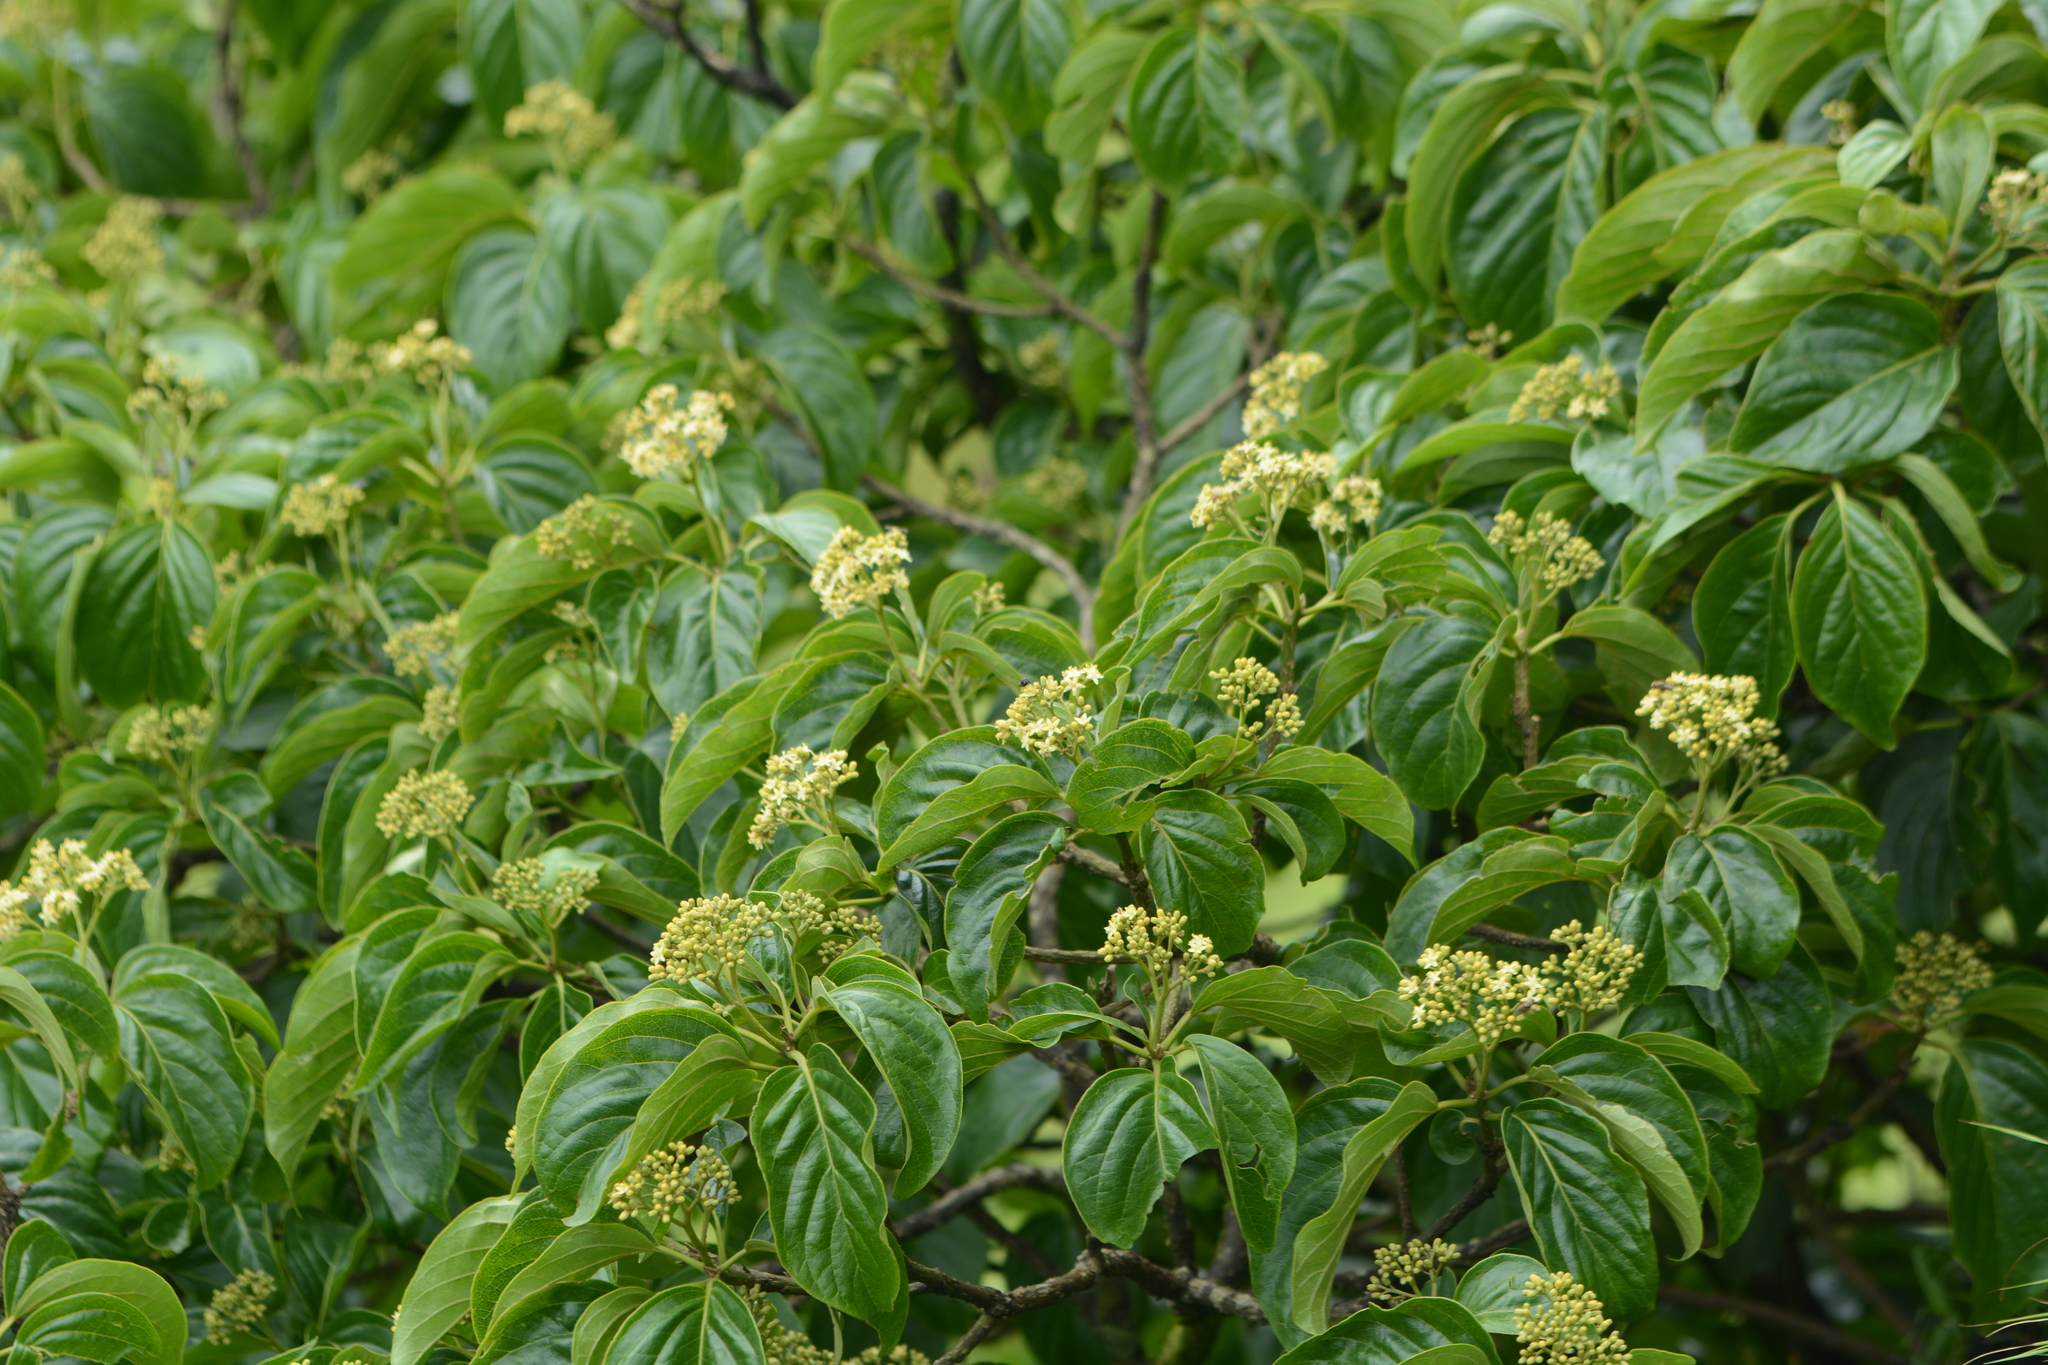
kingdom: Plantae
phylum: Tracheophyta
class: Magnoliopsida
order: Icacinales
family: Icacinaceae
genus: Nothapodytes
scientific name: Nothapodytes nimmoniana
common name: Nothapodytes
